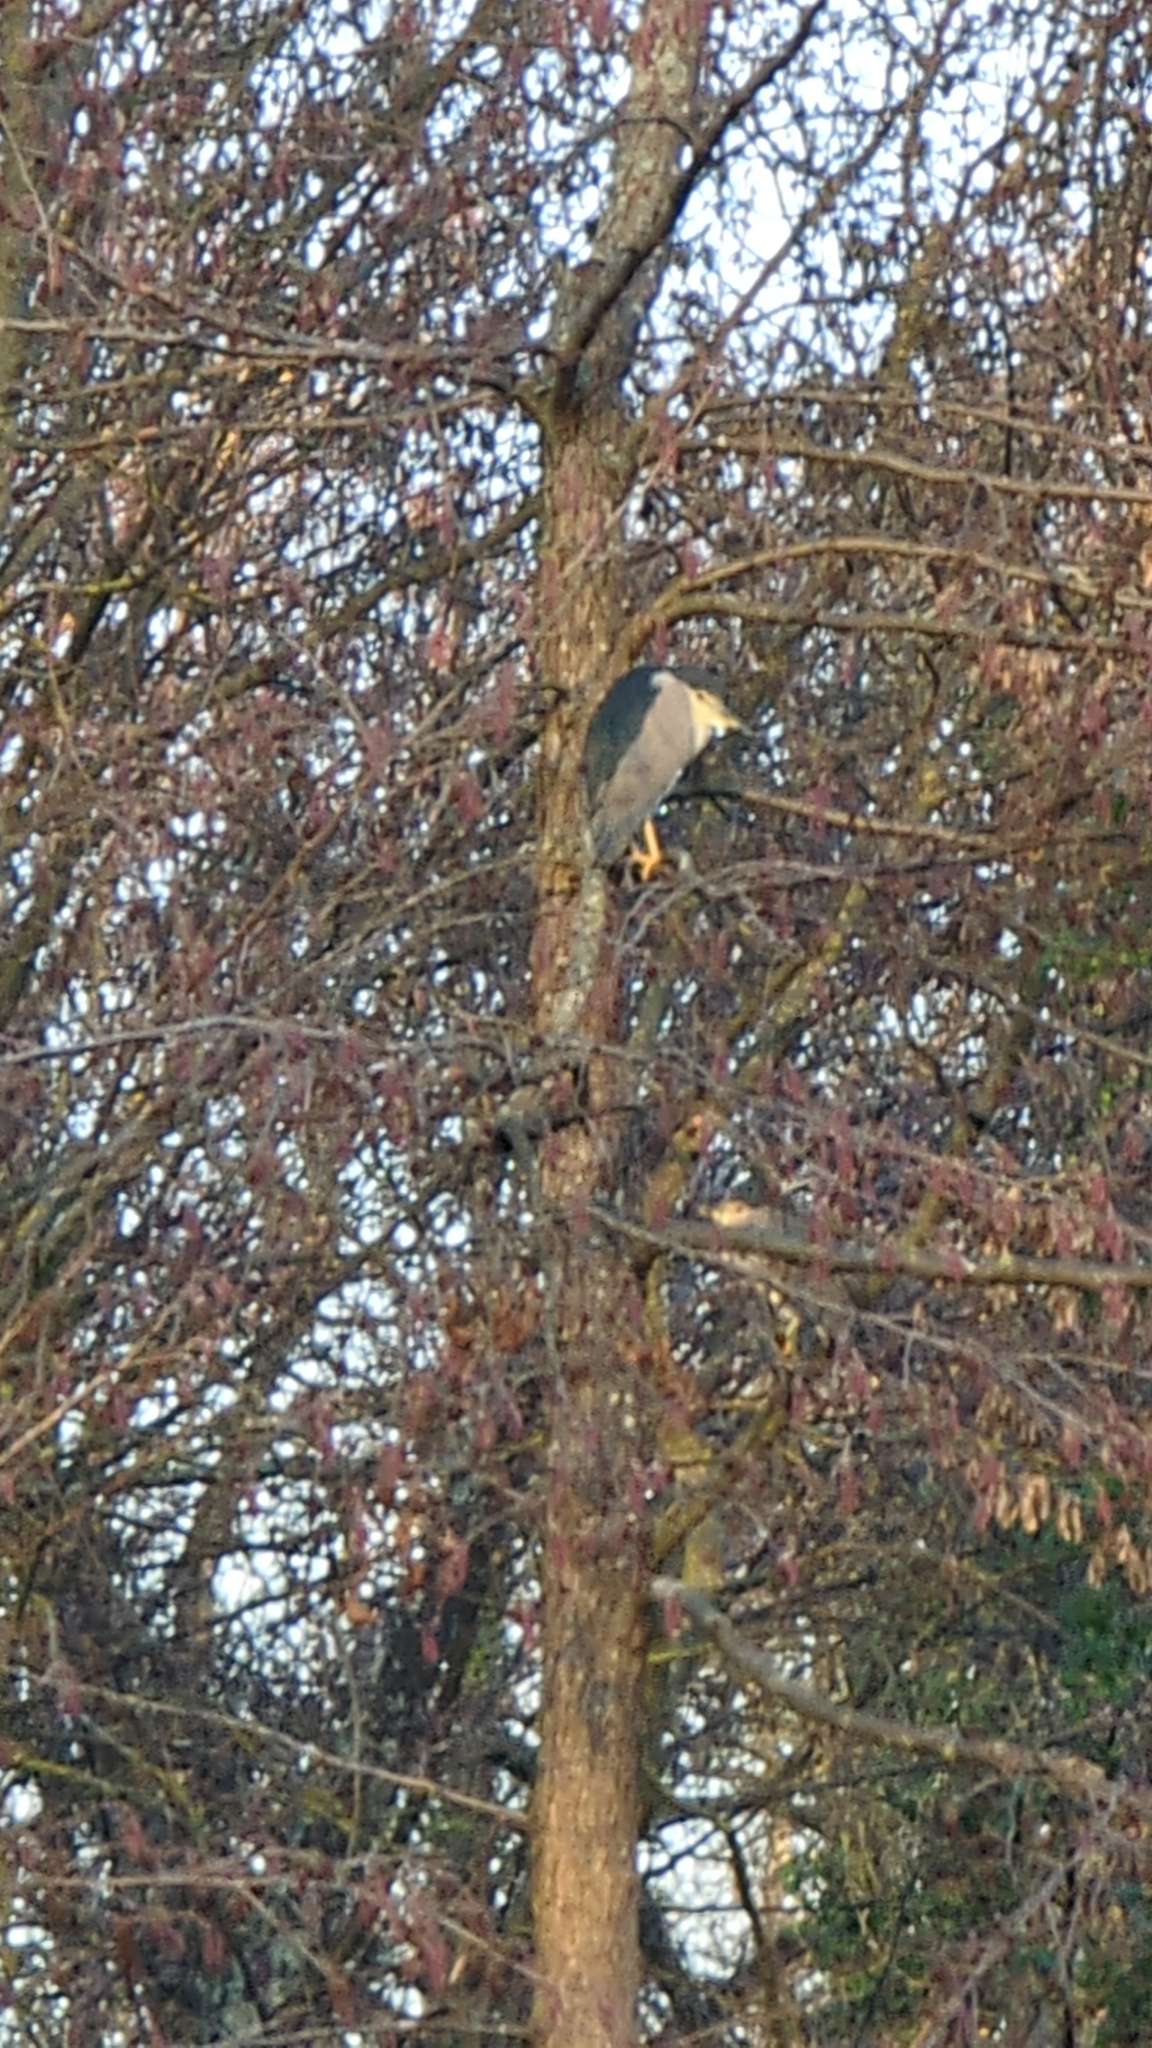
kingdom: Animalia
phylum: Chordata
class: Aves
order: Pelecaniformes
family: Ardeidae
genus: Nycticorax
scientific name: Nycticorax nycticorax
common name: Black-crowned night heron
